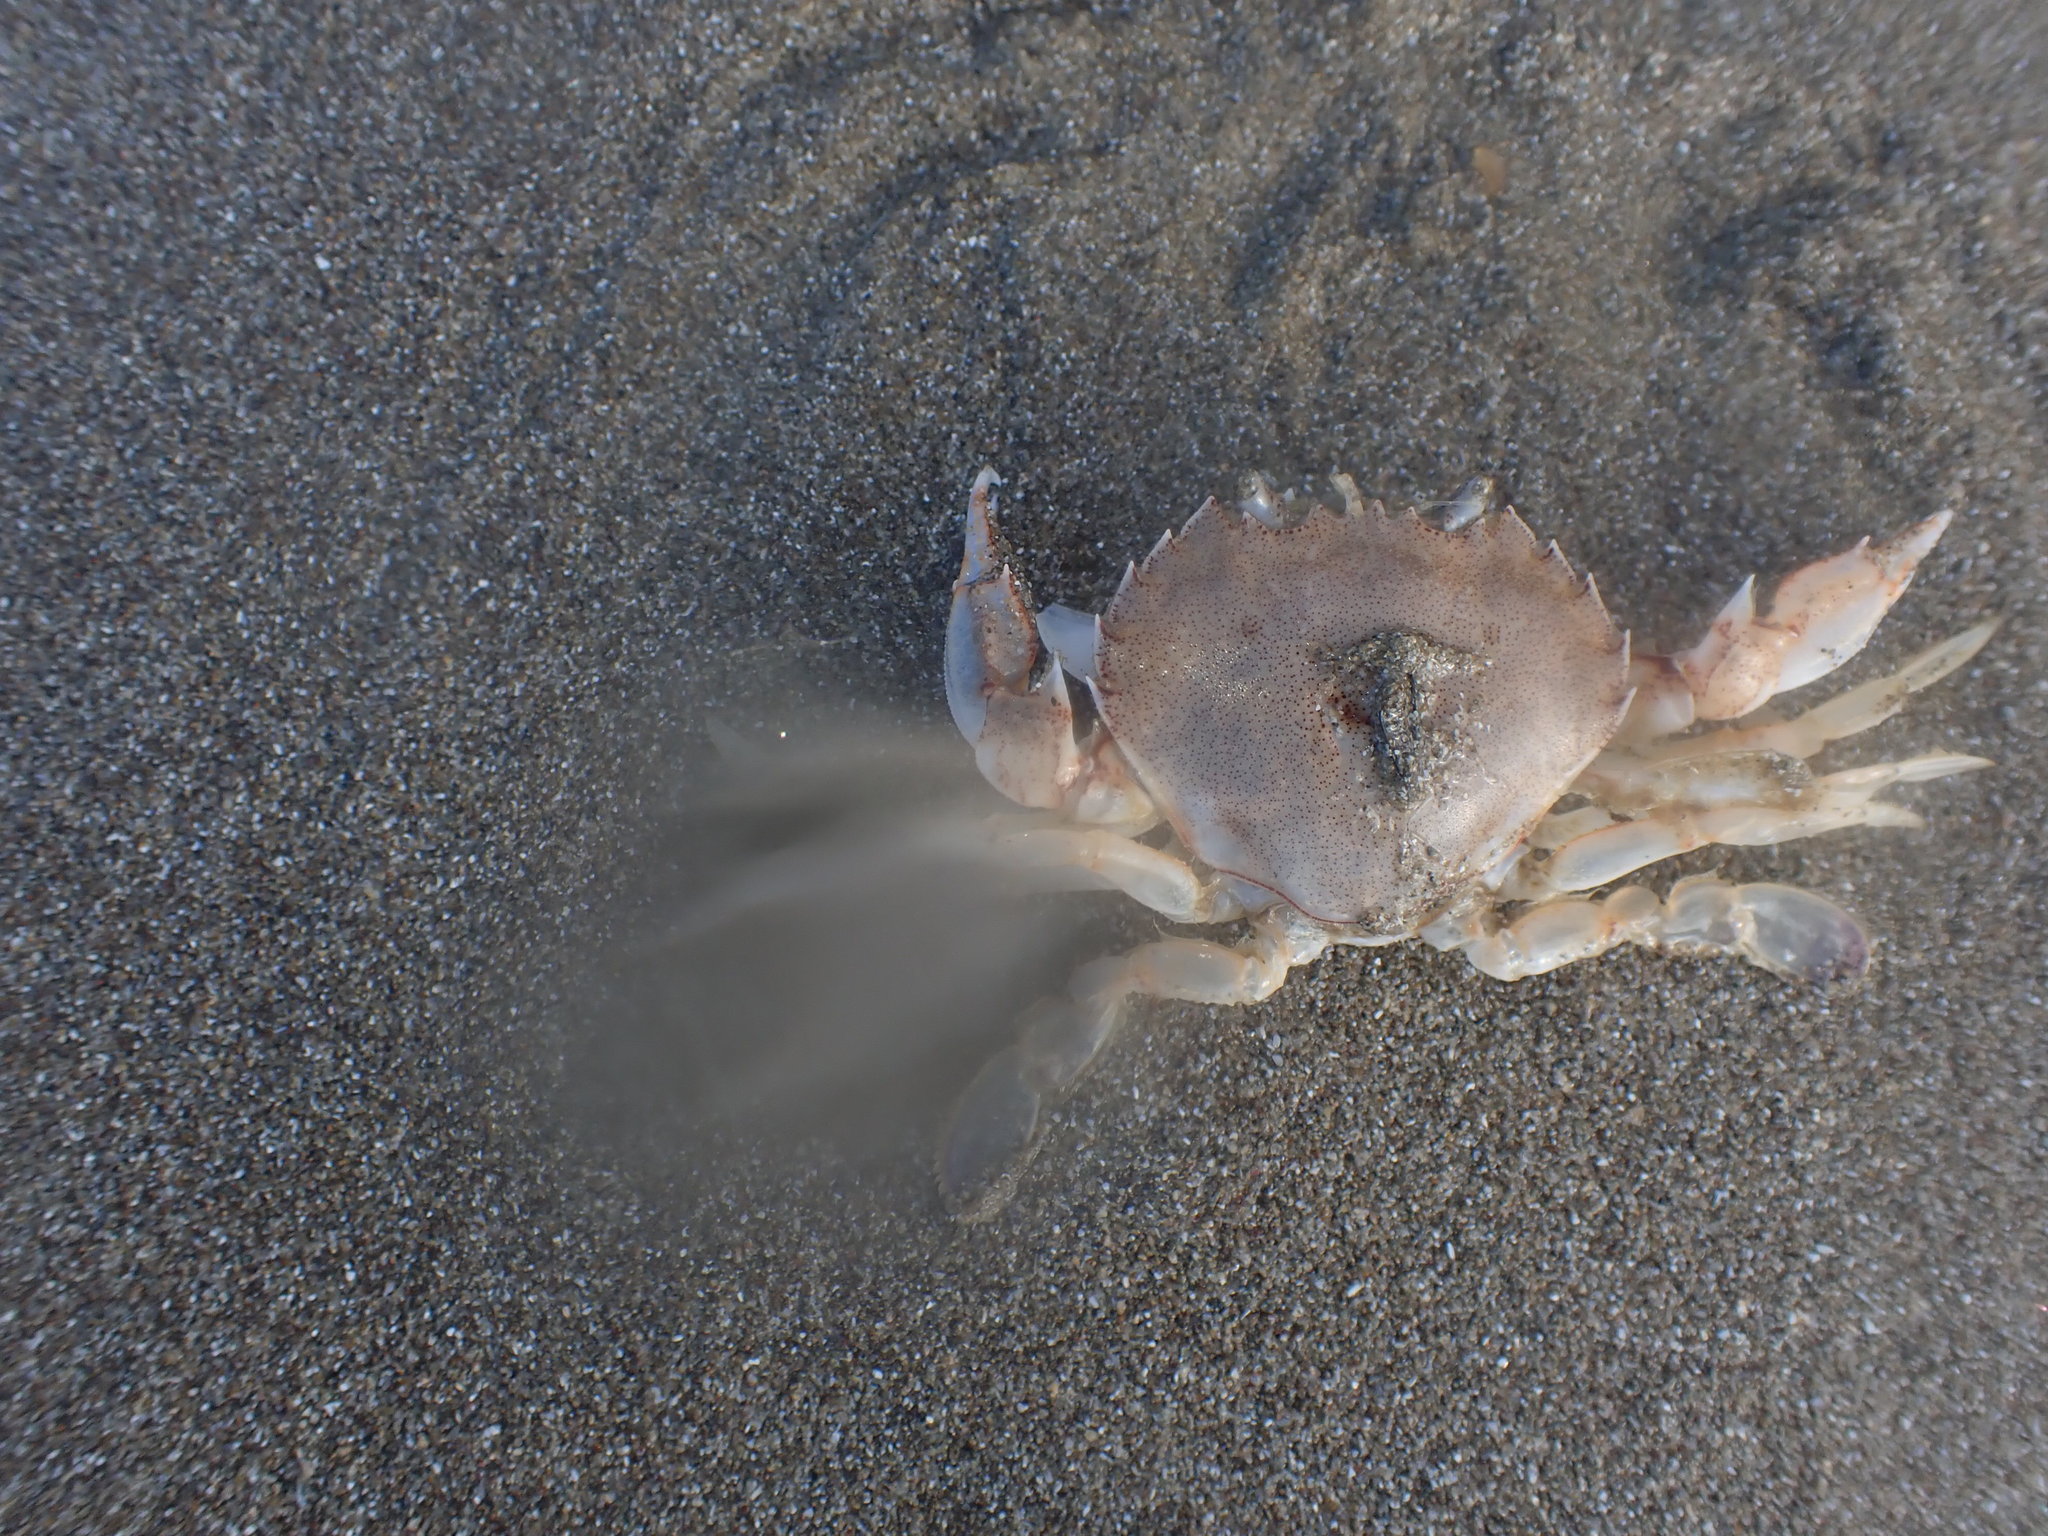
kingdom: Animalia
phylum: Arthropoda
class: Malacostraca
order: Decapoda
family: Ovalipidae
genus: Ovalipes
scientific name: Ovalipes catharus
